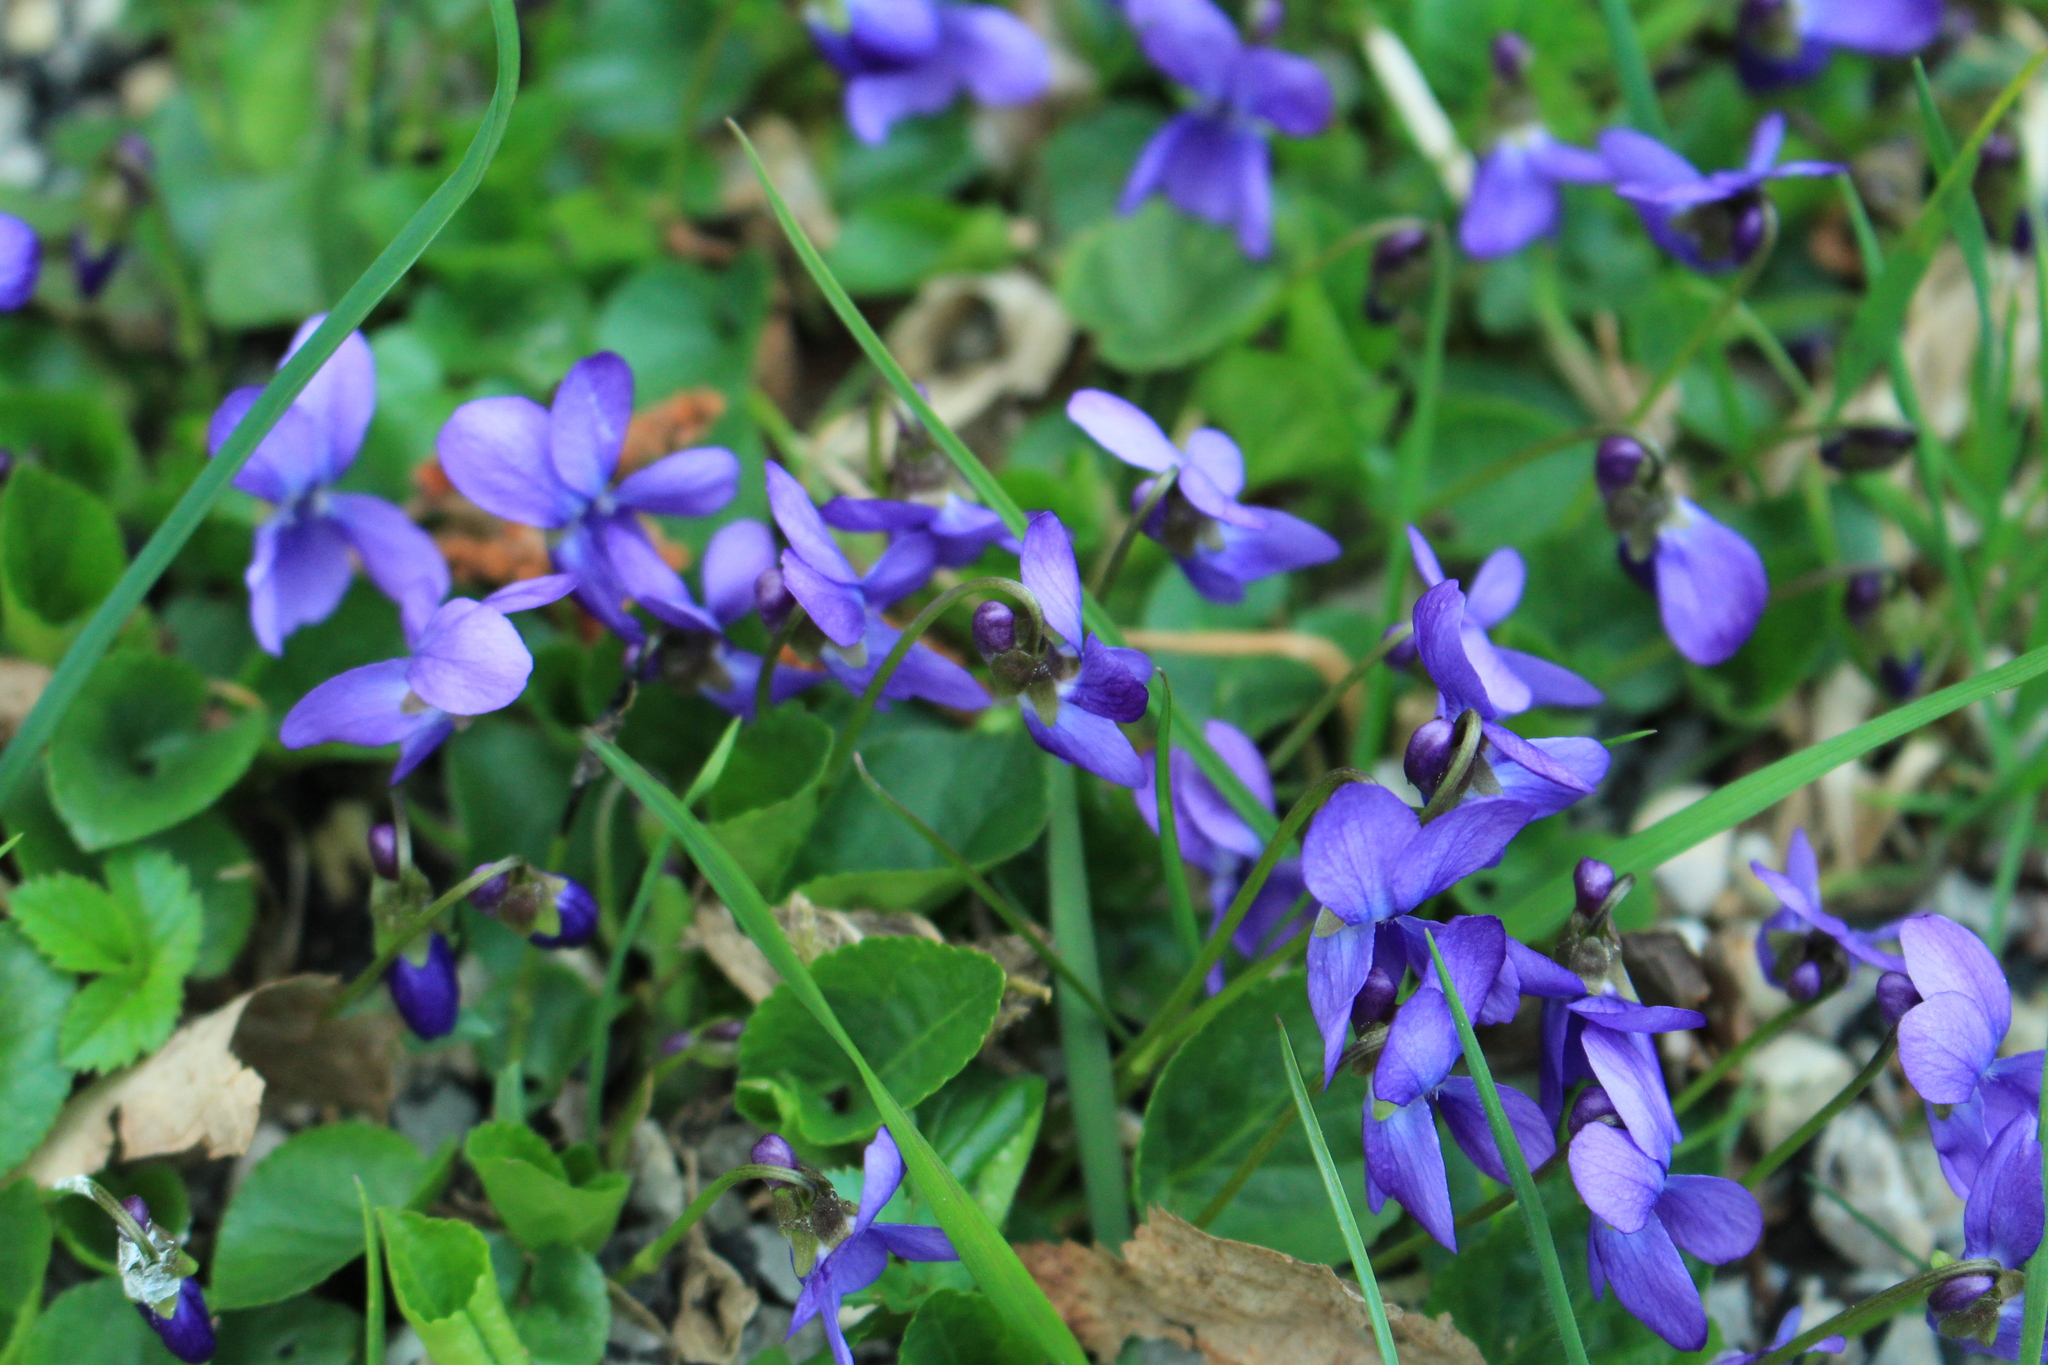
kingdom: Plantae
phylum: Tracheophyta
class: Magnoliopsida
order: Malpighiales
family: Violaceae
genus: Viola
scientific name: Viola odorata
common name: Sweet violet
